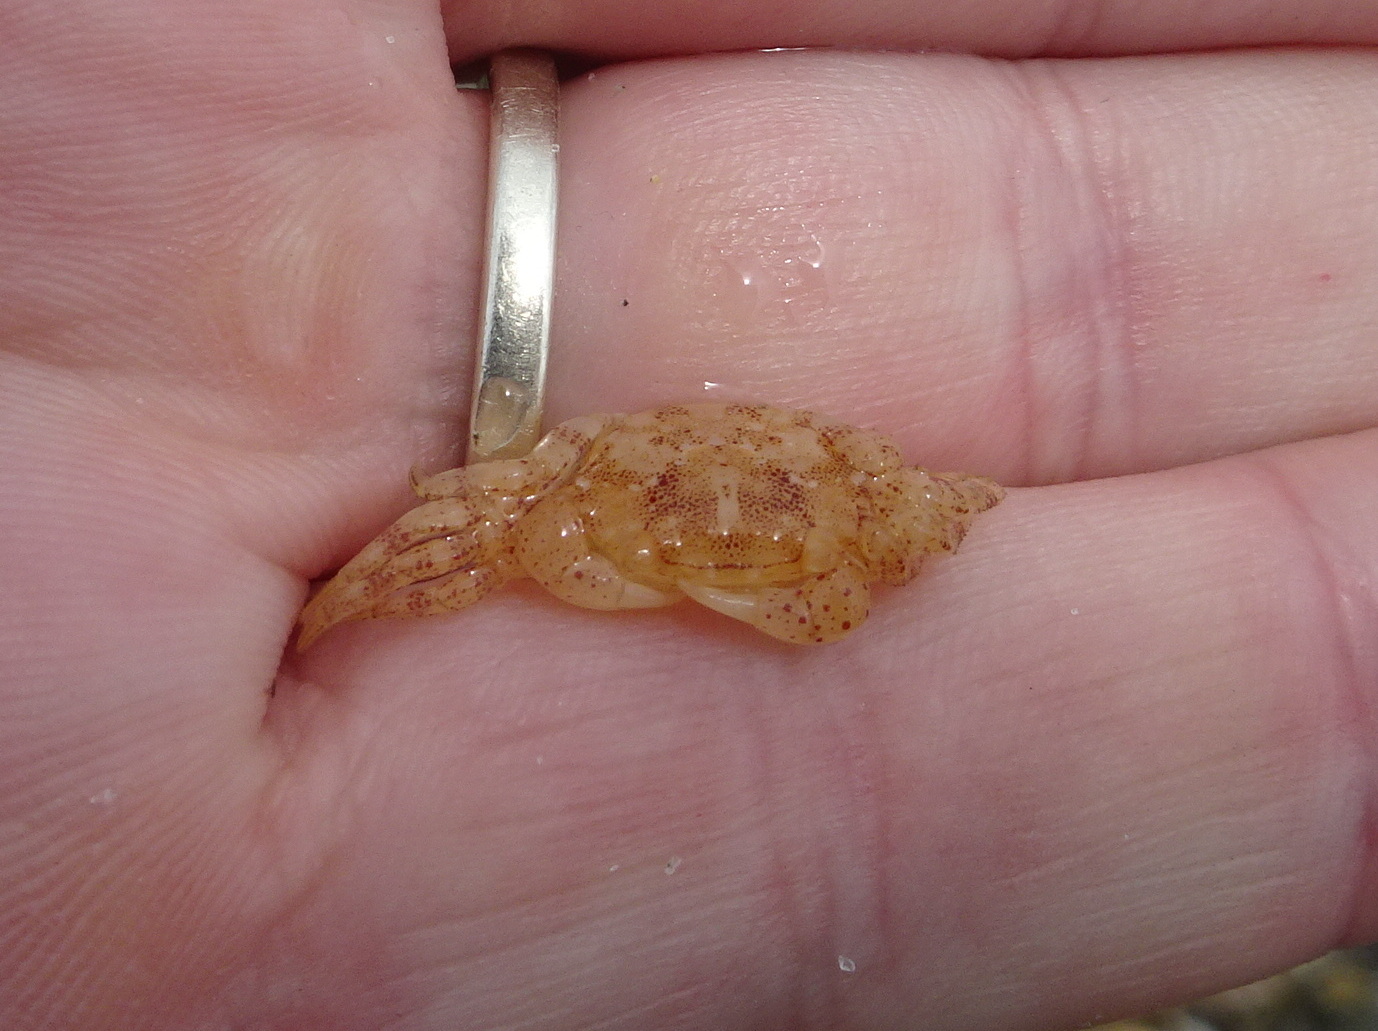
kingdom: Animalia
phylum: Arthropoda
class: Malacostraca
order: Decapoda
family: Varunidae
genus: Hemigrapsus
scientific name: Hemigrapsus sanguineus
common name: Asian shore crab
